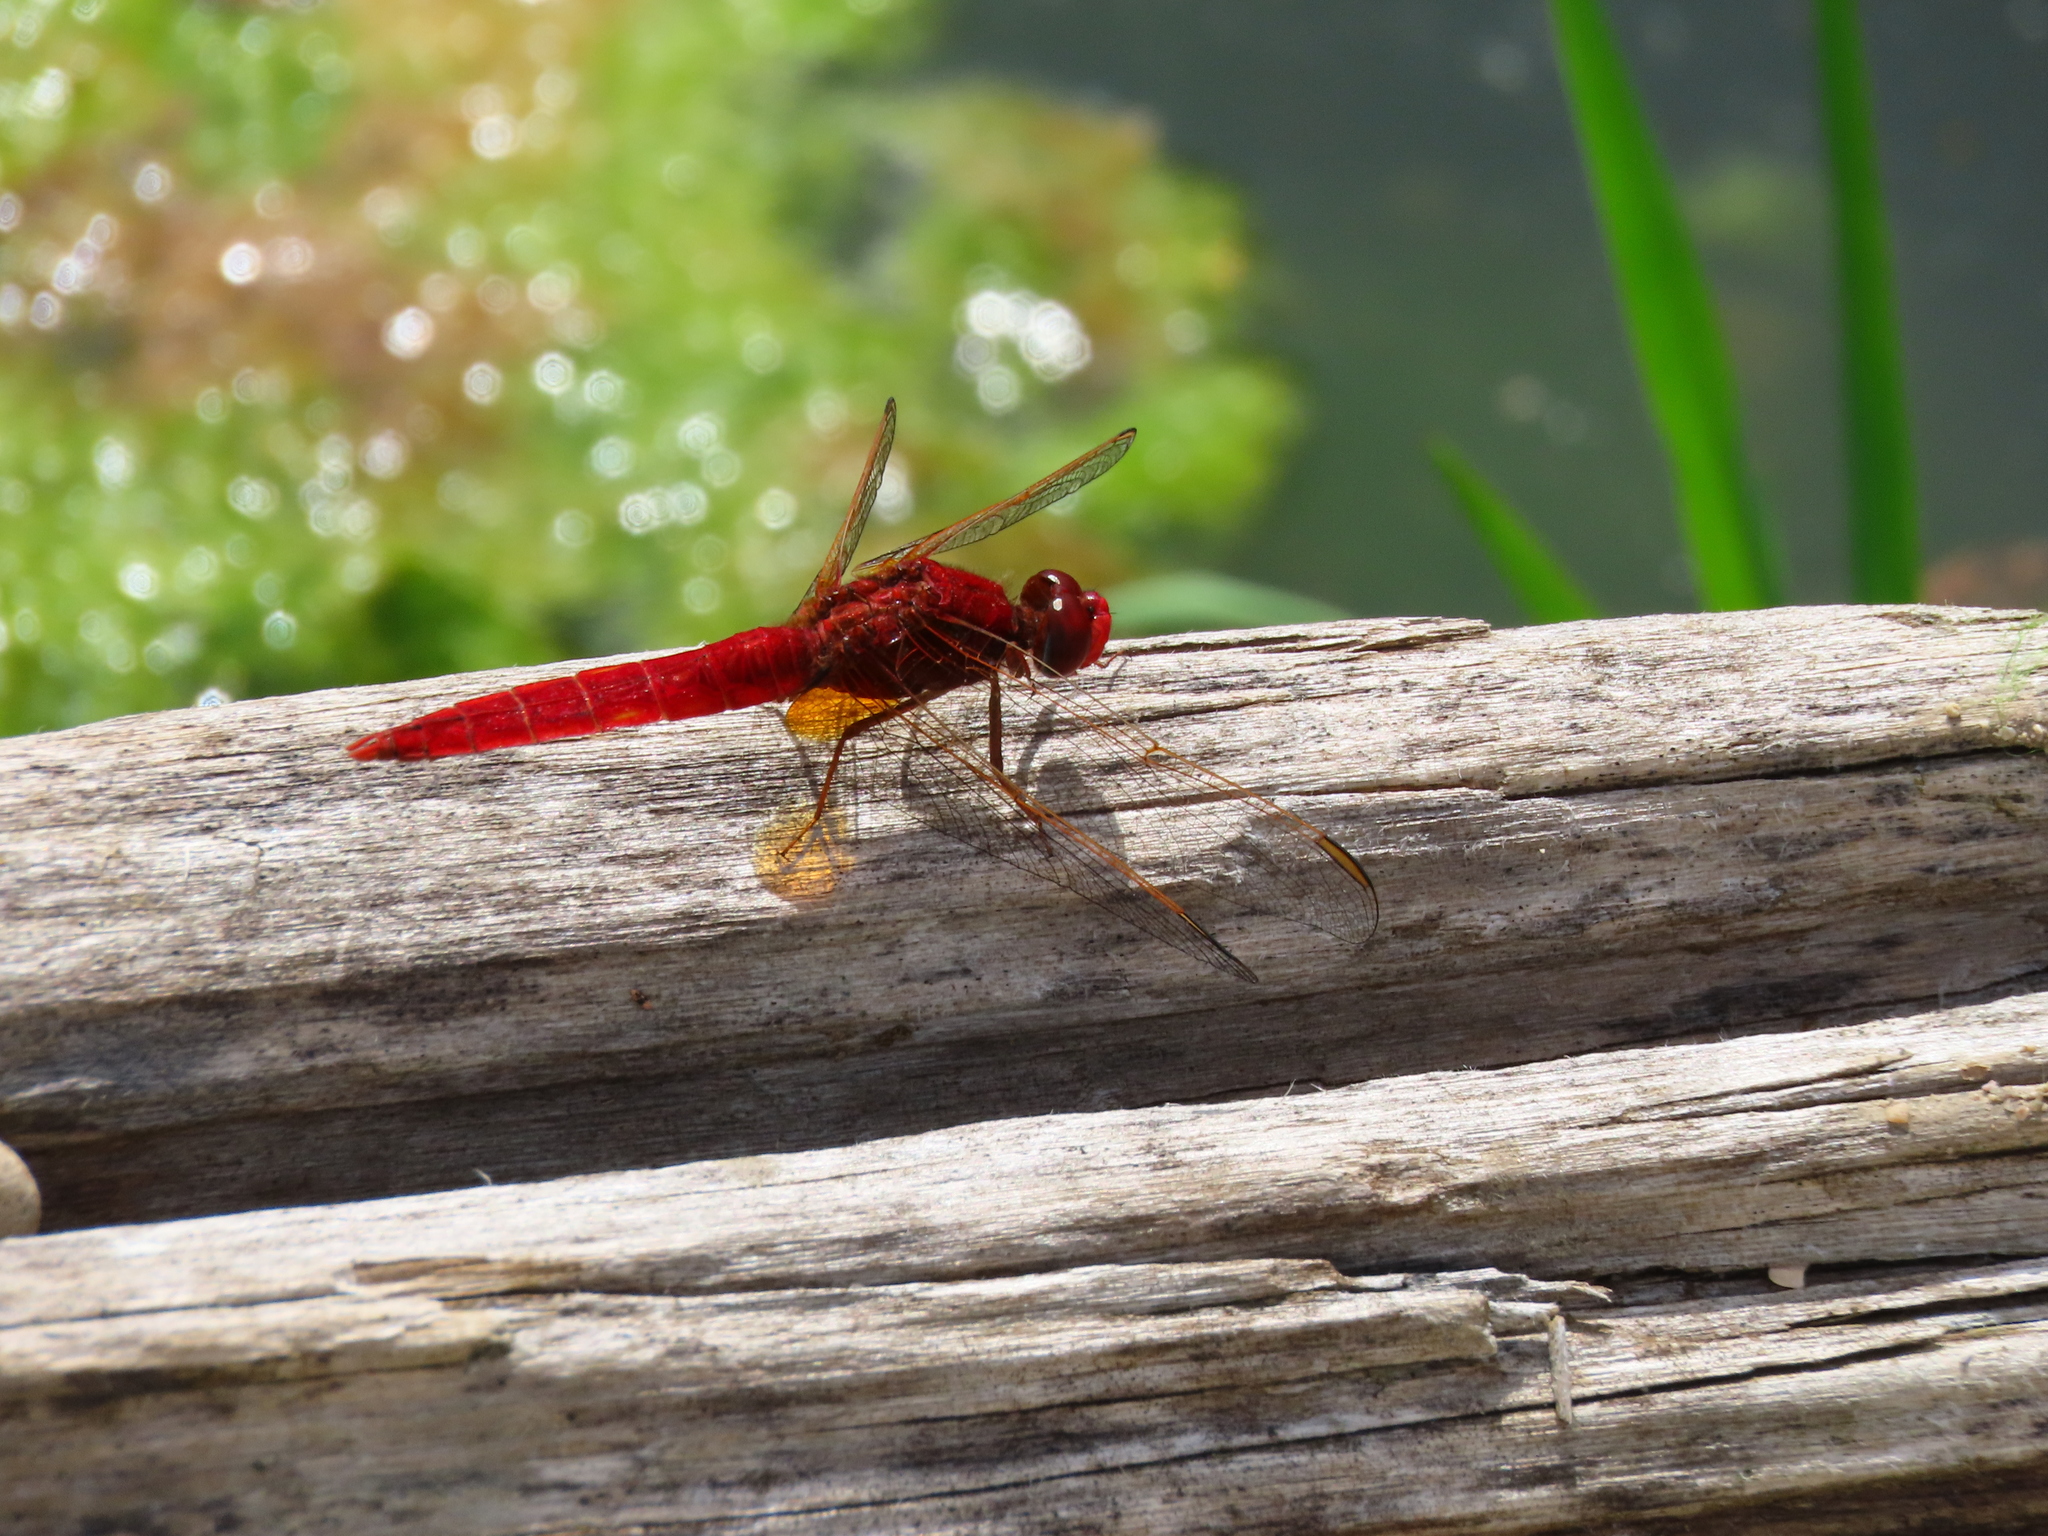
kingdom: Animalia
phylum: Arthropoda
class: Insecta
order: Odonata
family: Libellulidae
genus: Crocothemis
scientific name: Crocothemis erythraea
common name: Scarlet dragonfly
